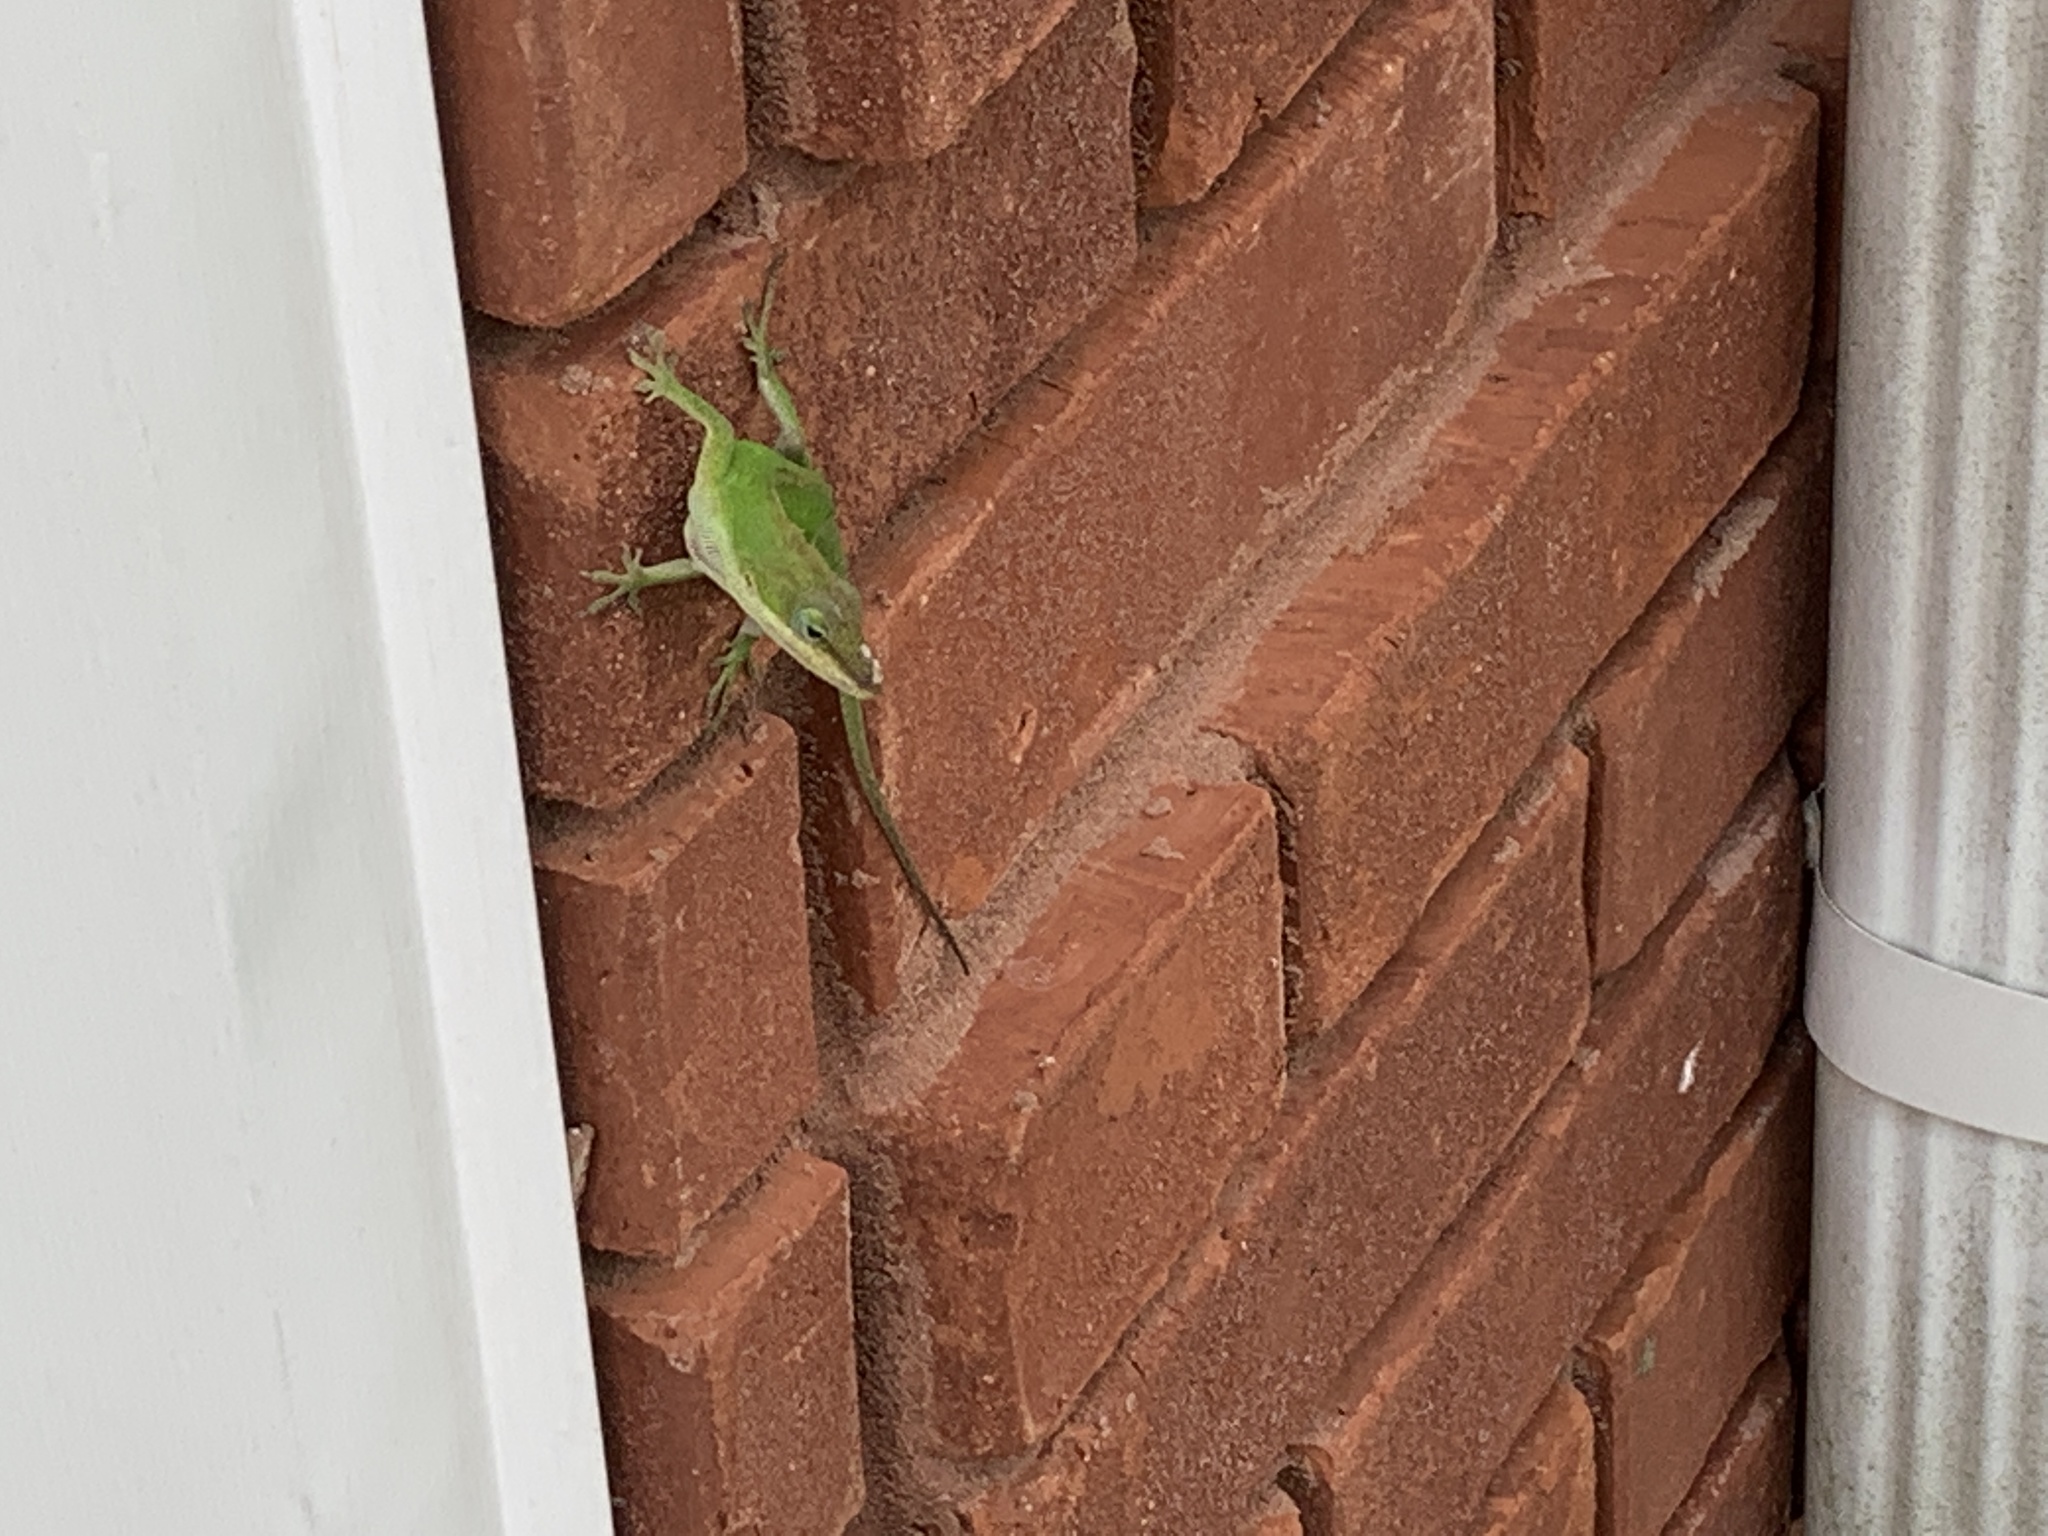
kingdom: Animalia
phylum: Chordata
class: Squamata
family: Dactyloidae
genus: Anolis
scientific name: Anolis carolinensis
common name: Green anole
